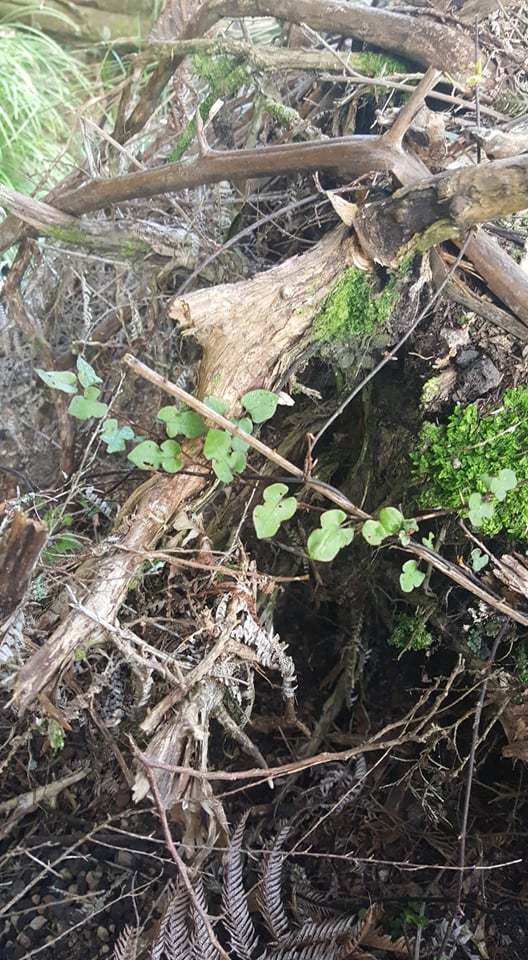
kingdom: Plantae
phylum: Tracheophyta
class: Magnoliopsida
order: Caryophyllales
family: Polygonaceae
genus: Muehlenbeckia
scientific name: Muehlenbeckia australis
